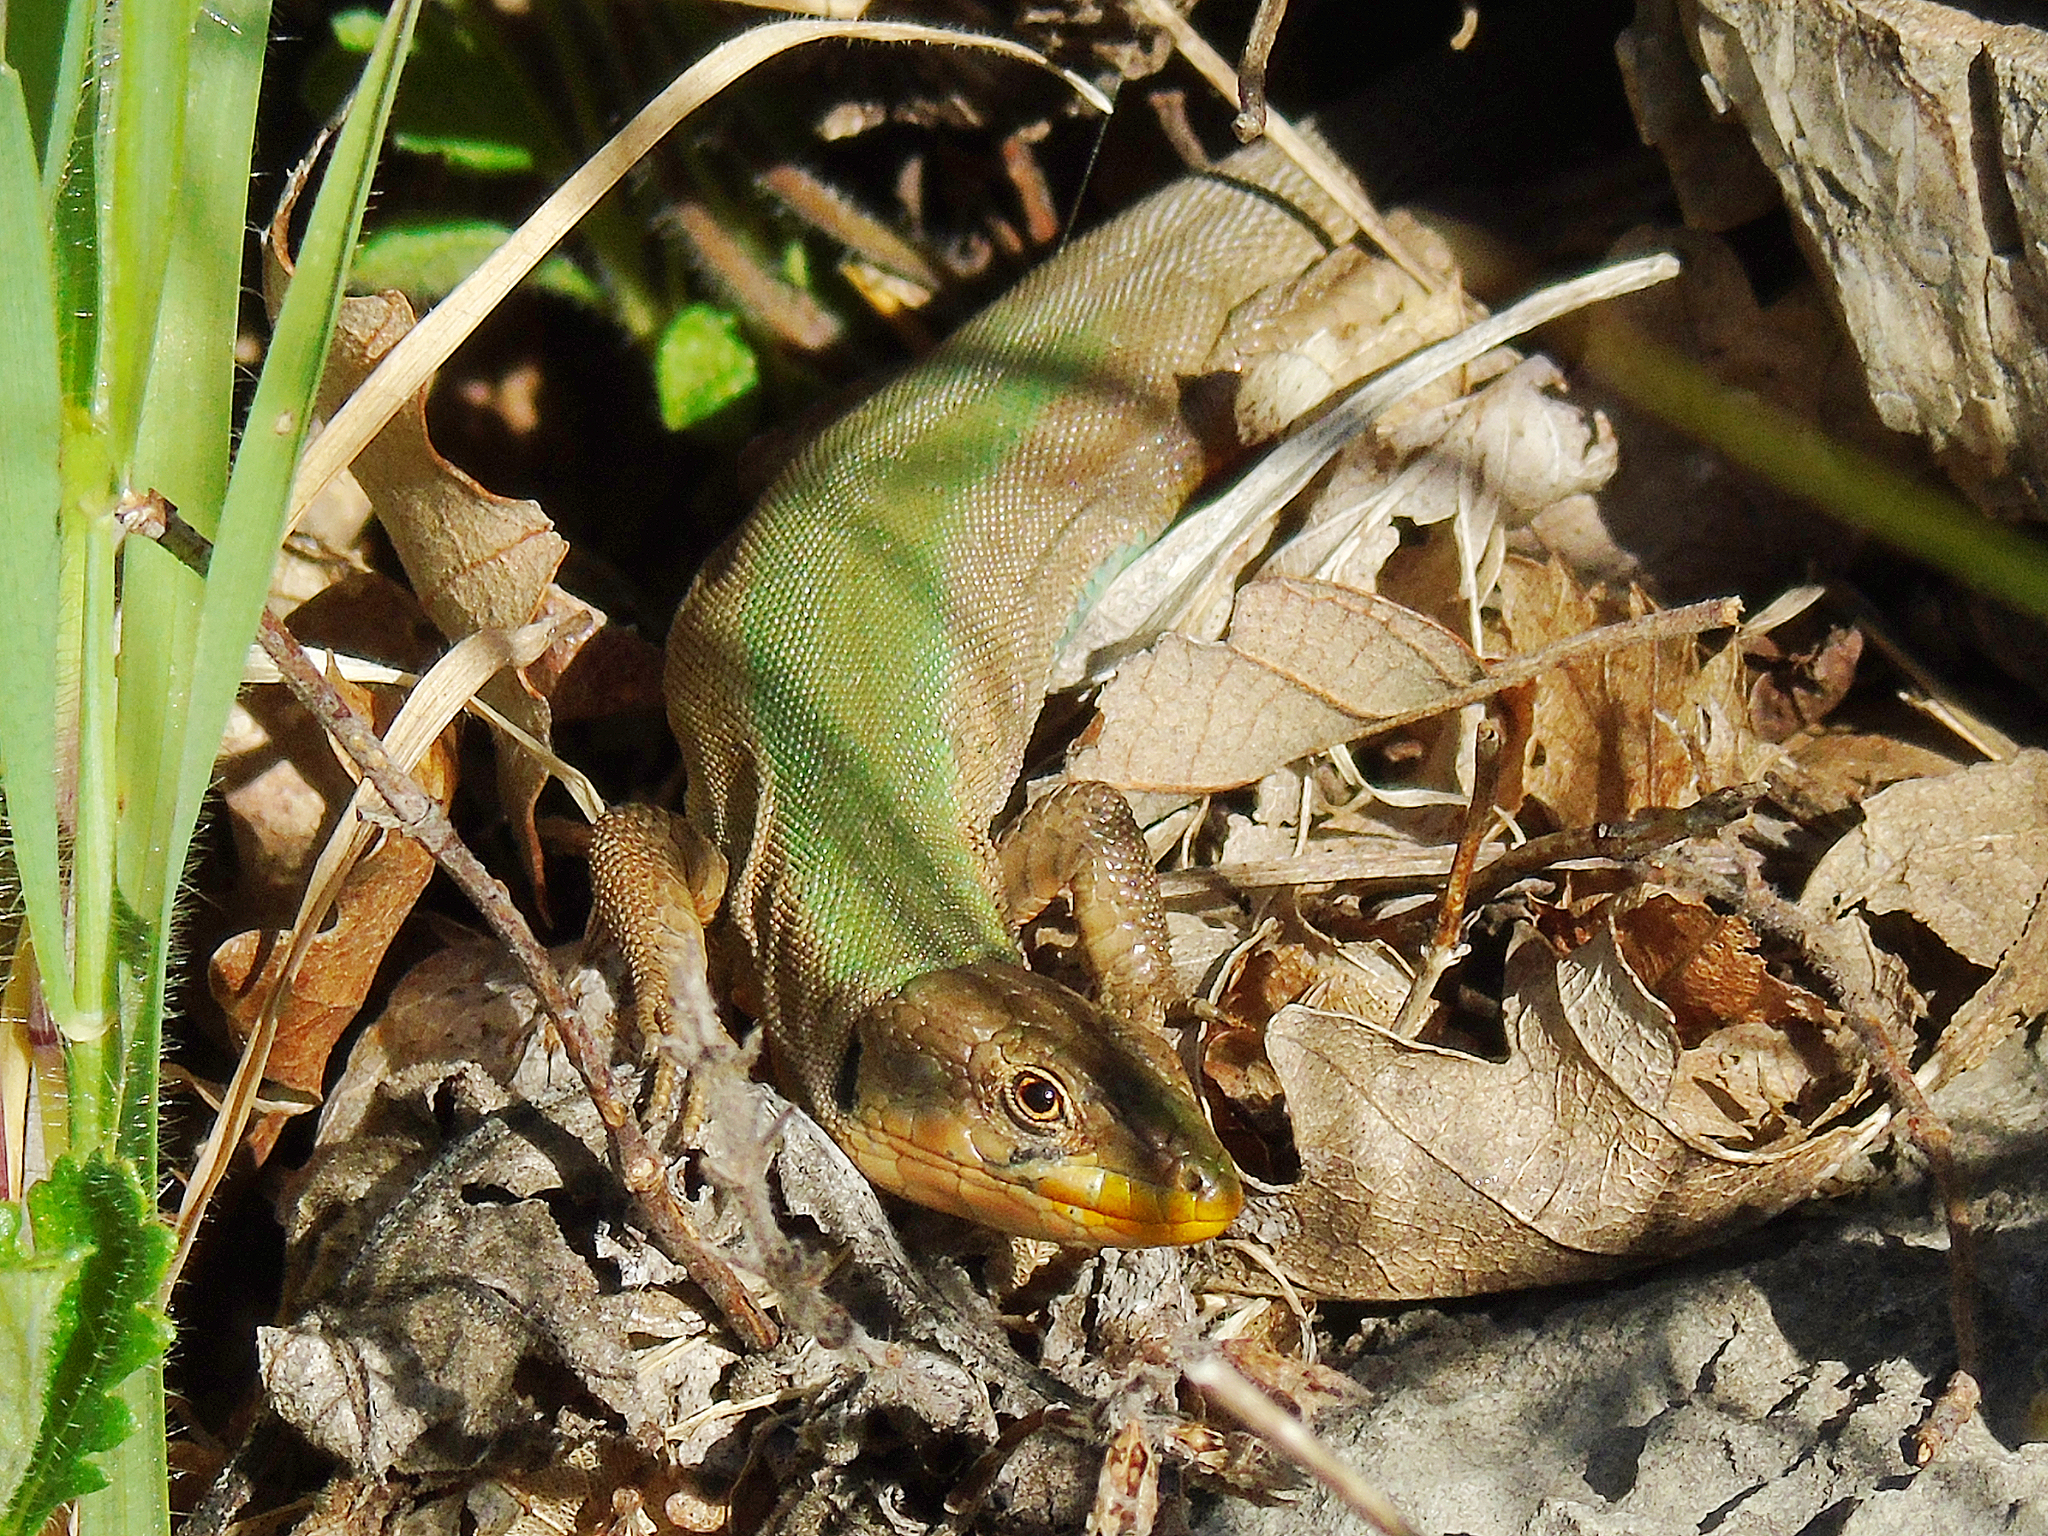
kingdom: Animalia
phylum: Chordata
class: Squamata
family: Lacertidae
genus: Podarcis
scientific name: Podarcis melisellensis
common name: Dalmatian wall lizard
